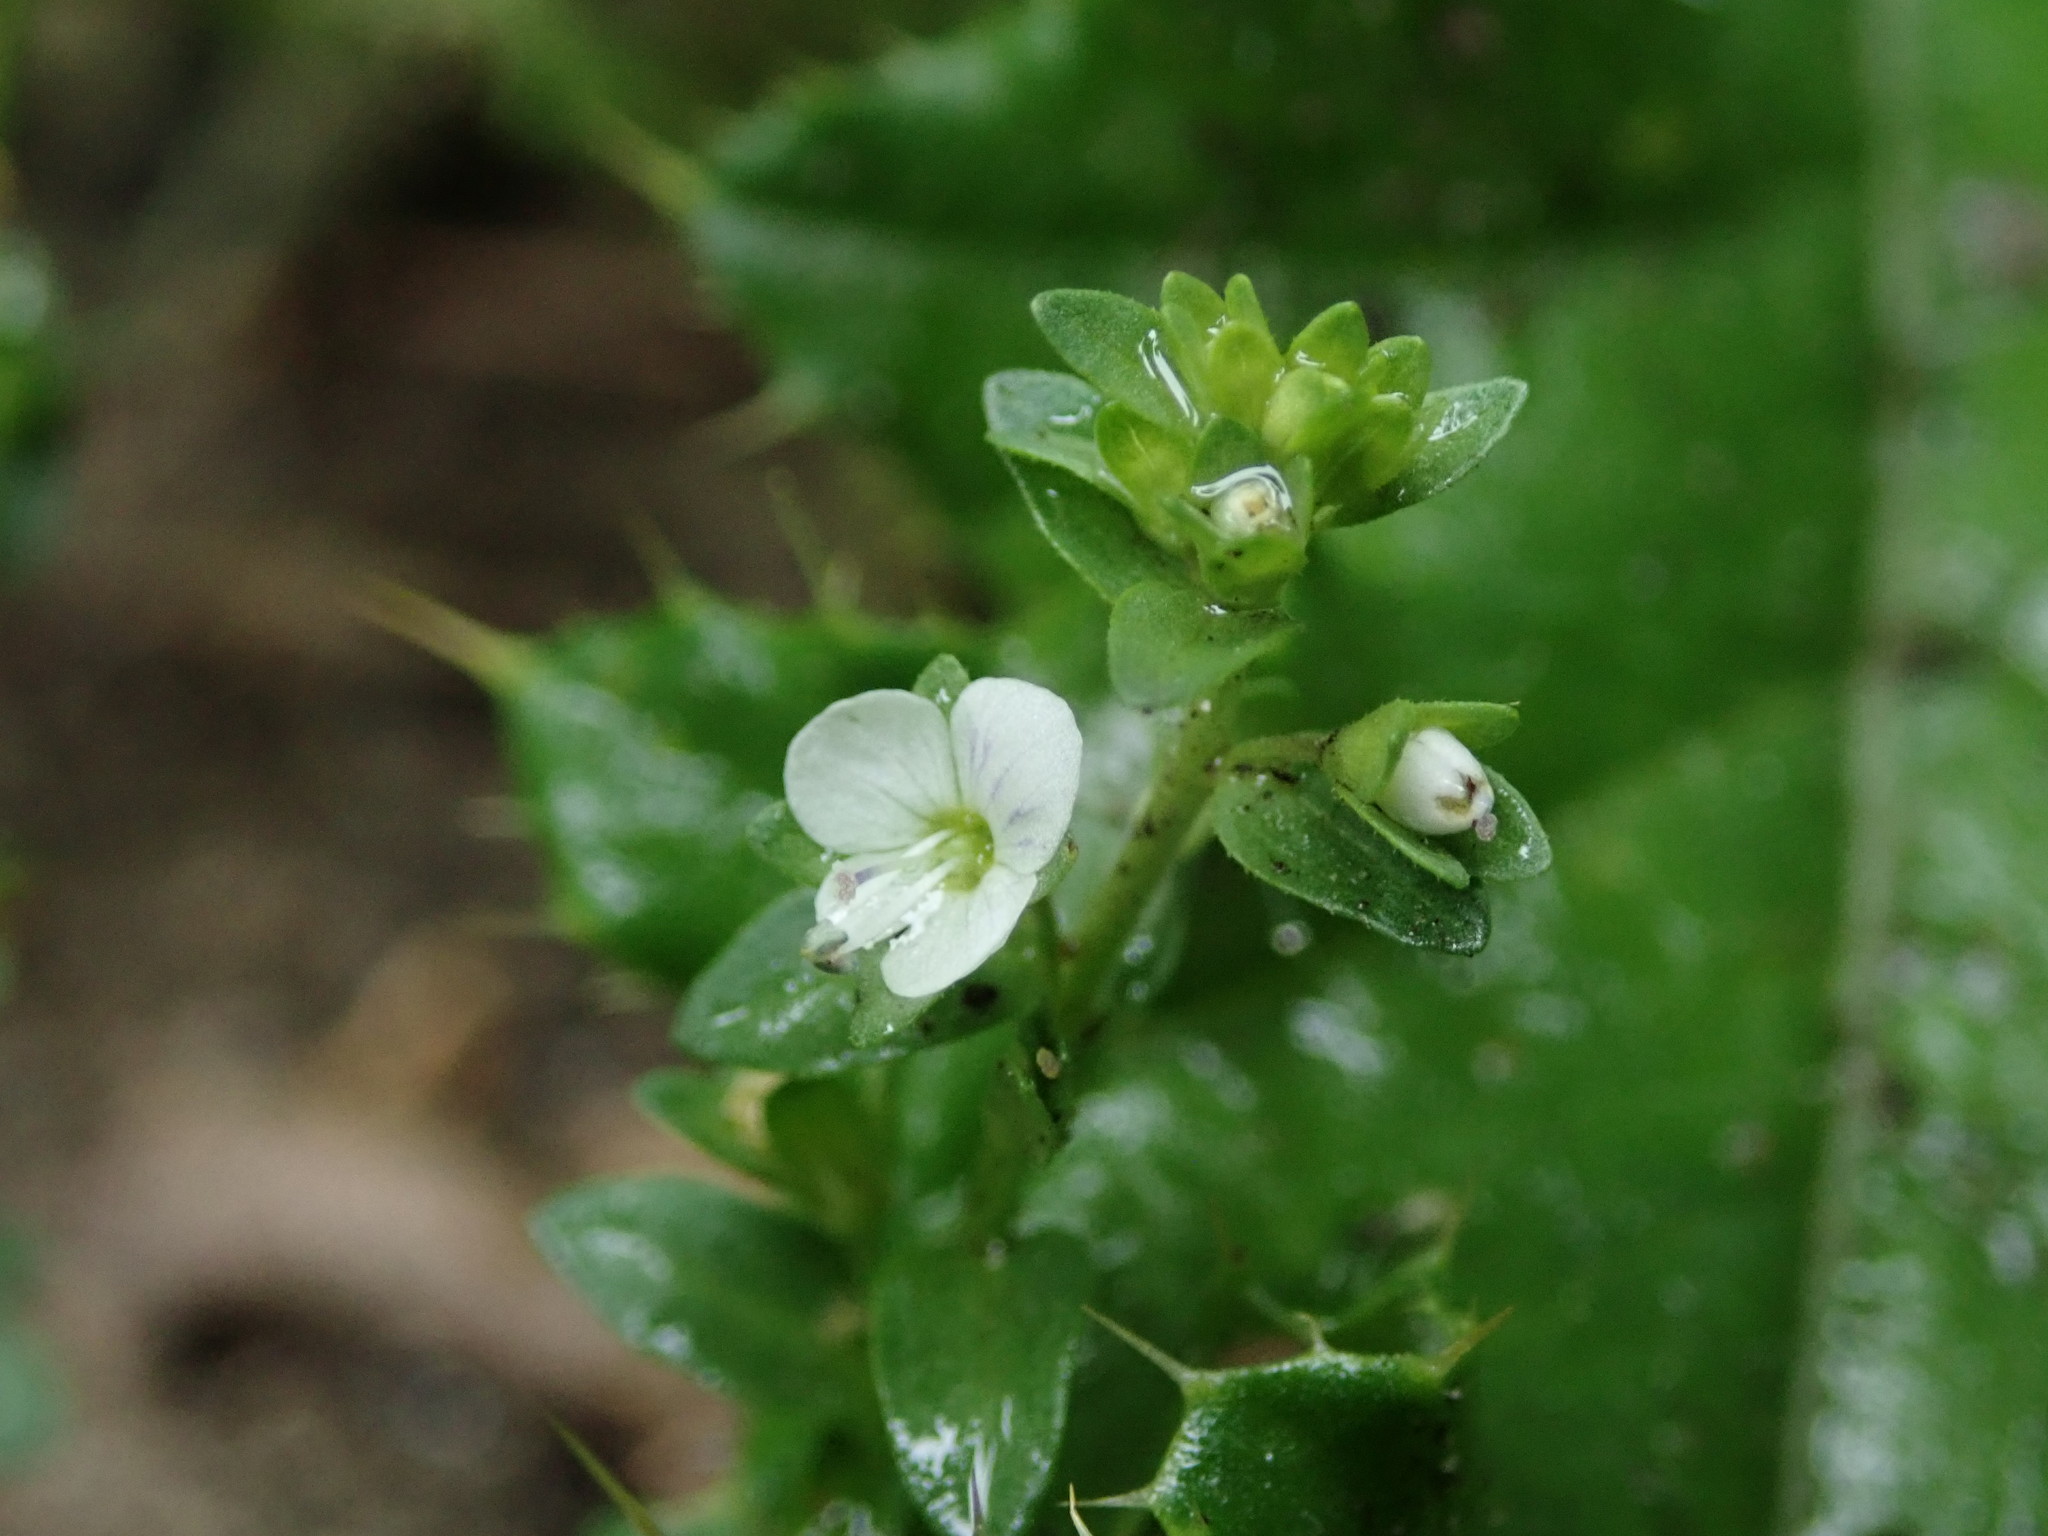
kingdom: Plantae
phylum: Tracheophyta
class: Magnoliopsida
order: Lamiales
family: Plantaginaceae
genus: Veronica
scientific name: Veronica serpyllifolia
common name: Thyme-leaved speedwell
